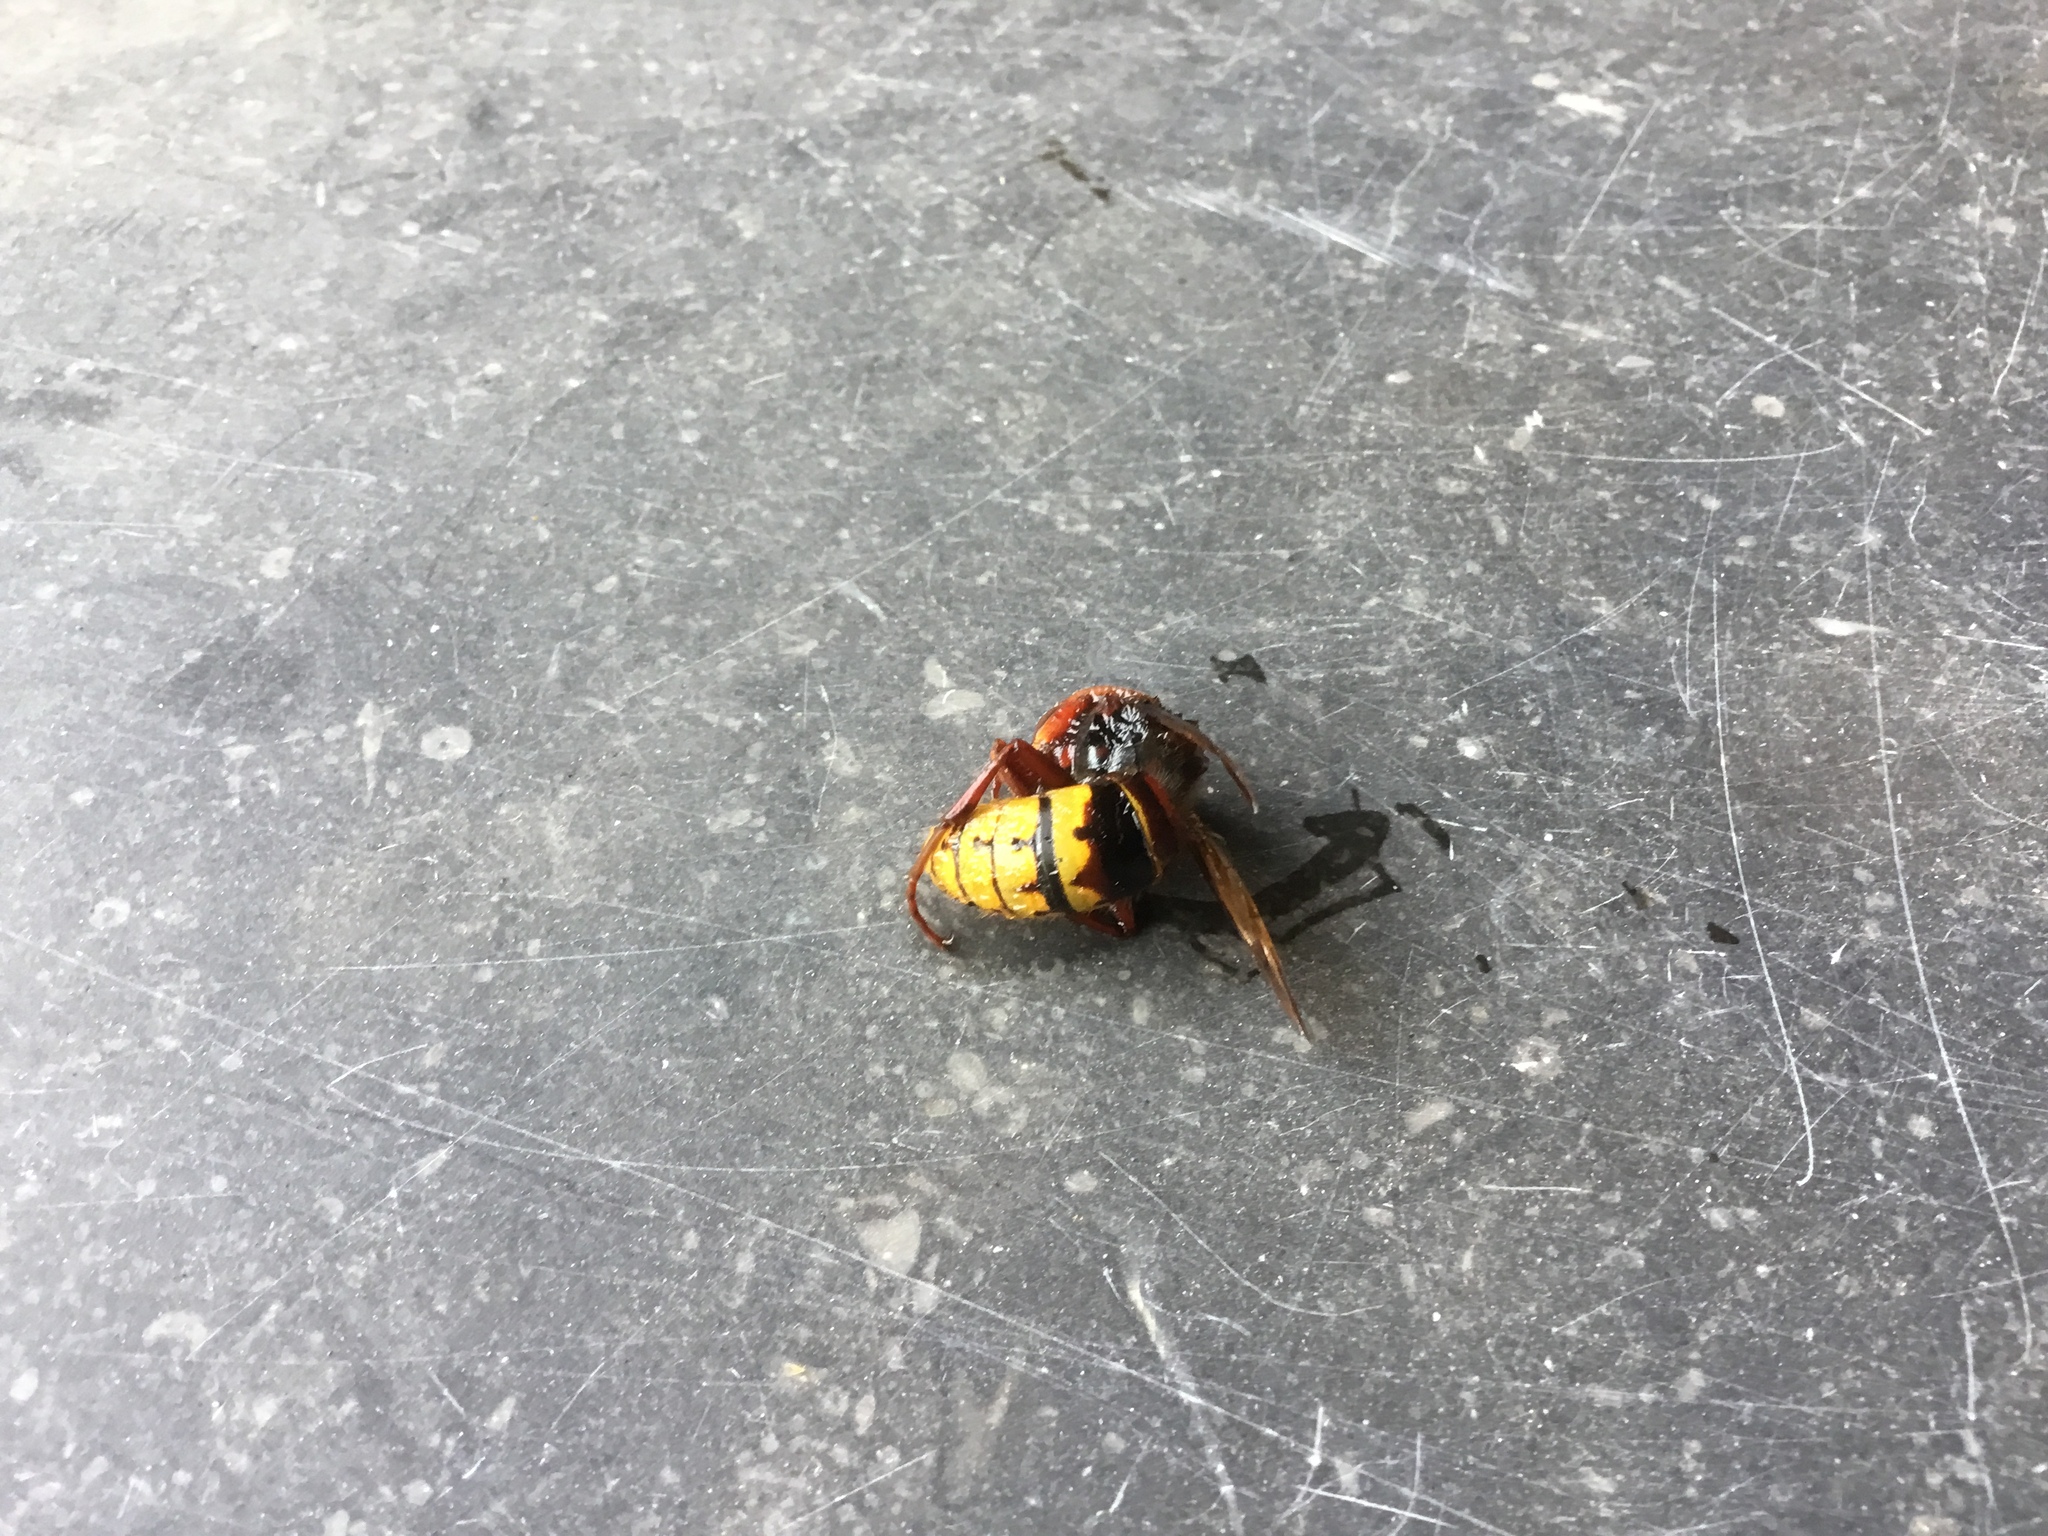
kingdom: Animalia
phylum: Arthropoda
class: Insecta
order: Hymenoptera
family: Vespidae
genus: Vespa
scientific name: Vespa crabro
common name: Hornet
